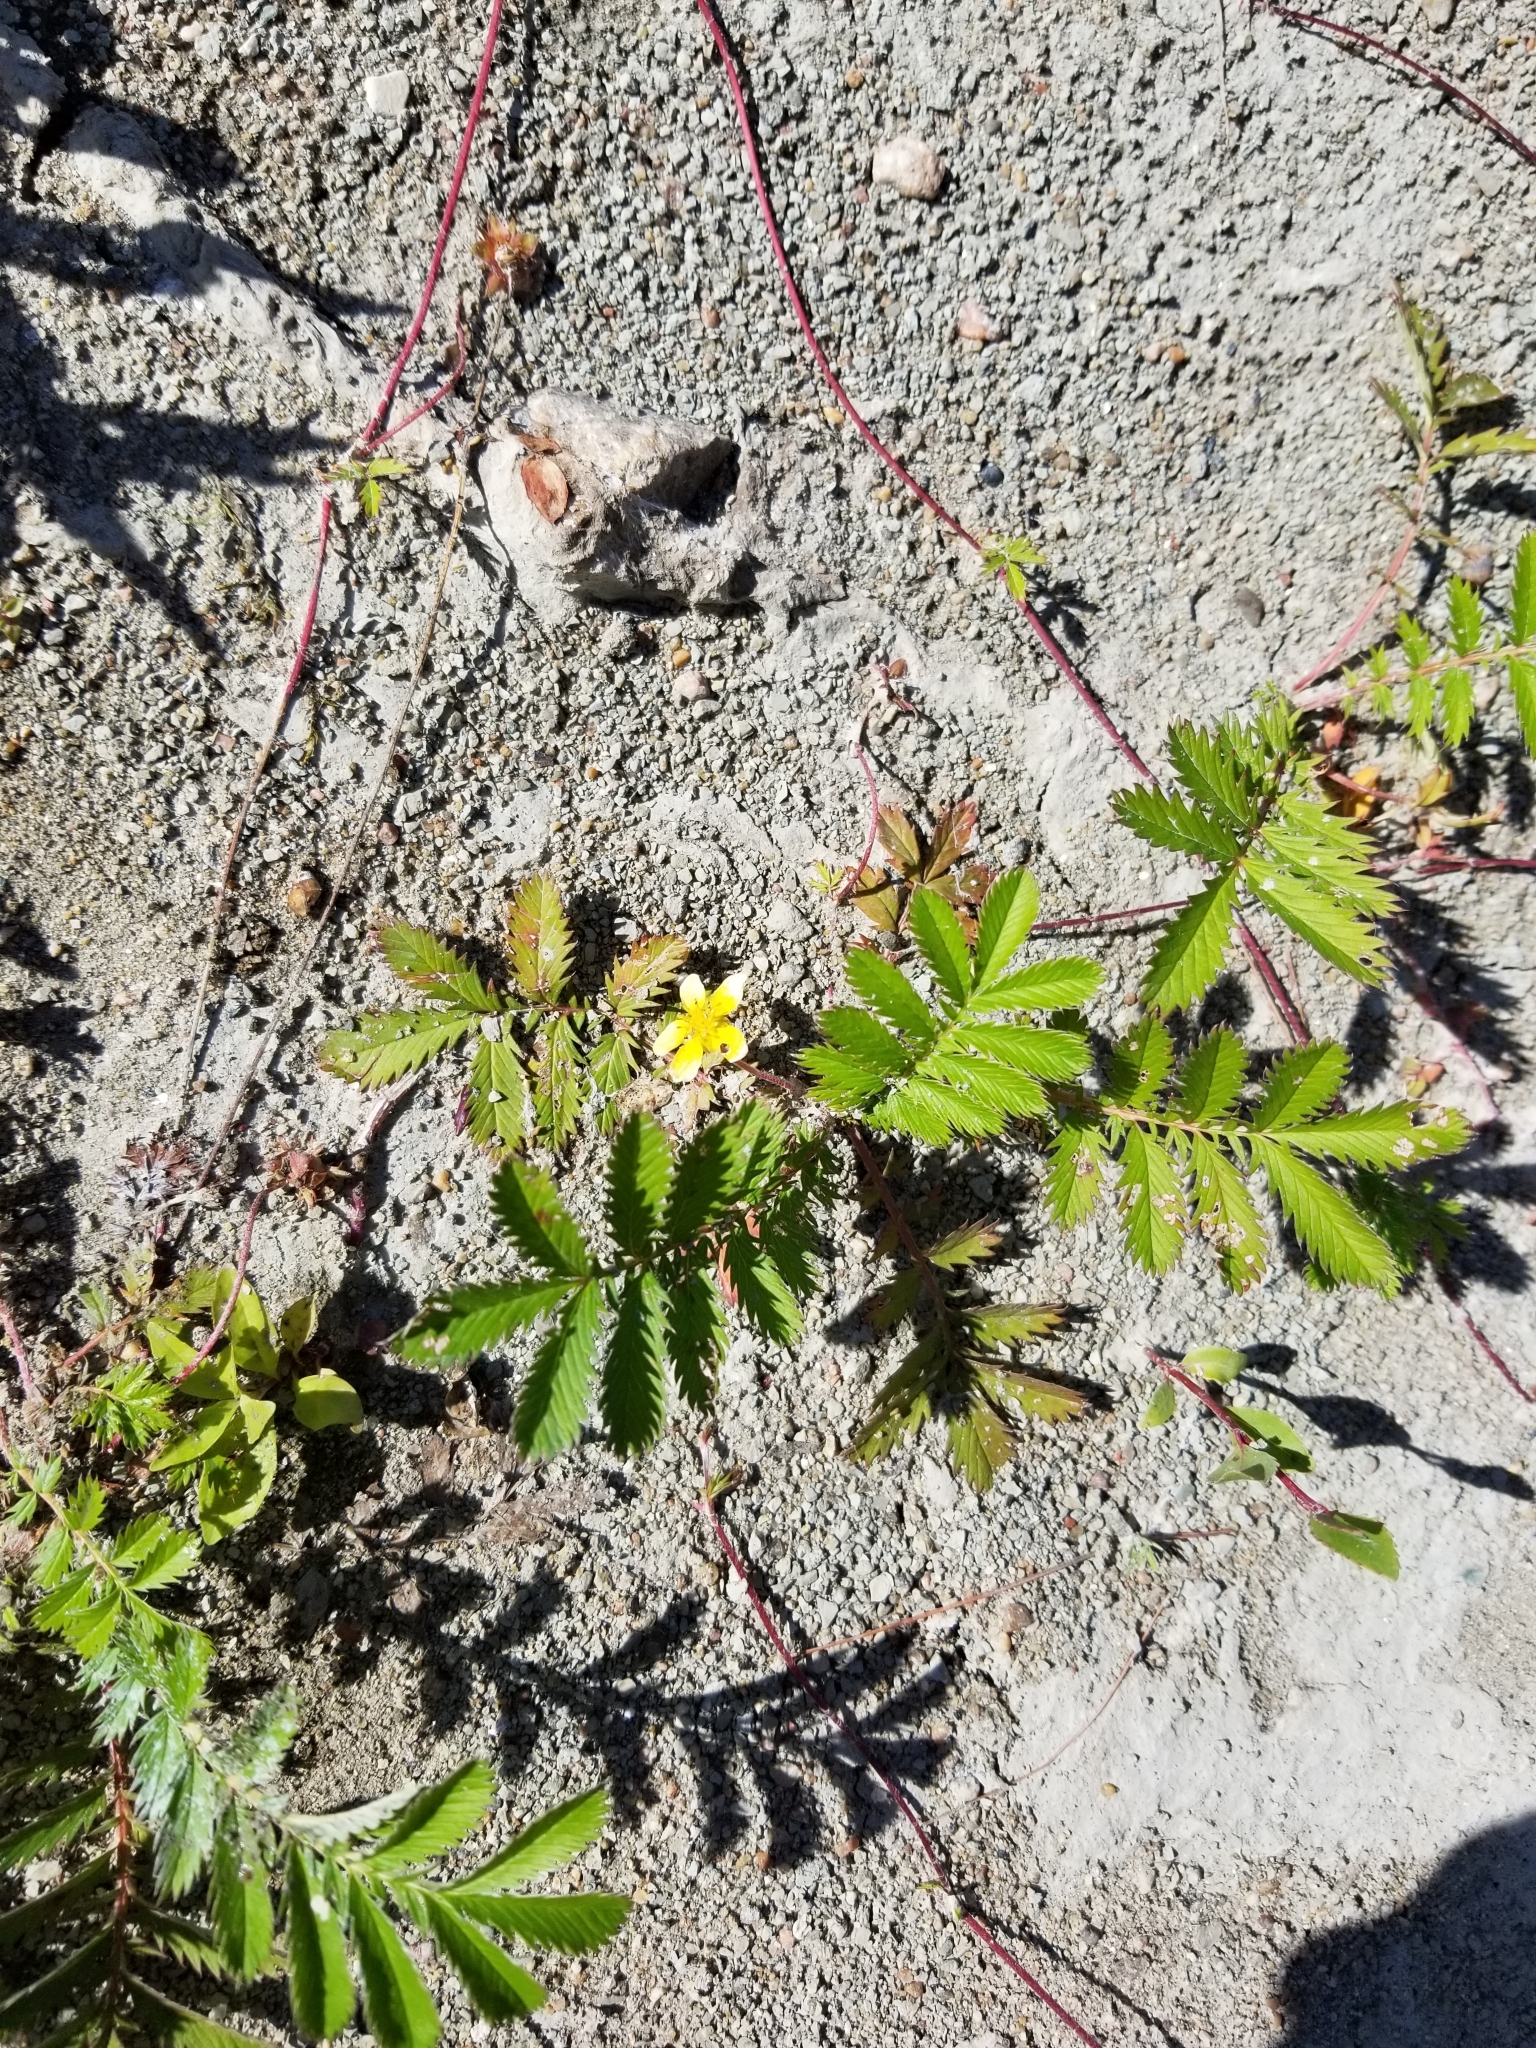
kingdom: Plantae
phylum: Tracheophyta
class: Magnoliopsida
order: Rosales
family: Rosaceae
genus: Argentina
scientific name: Argentina anserina
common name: Common silverweed
